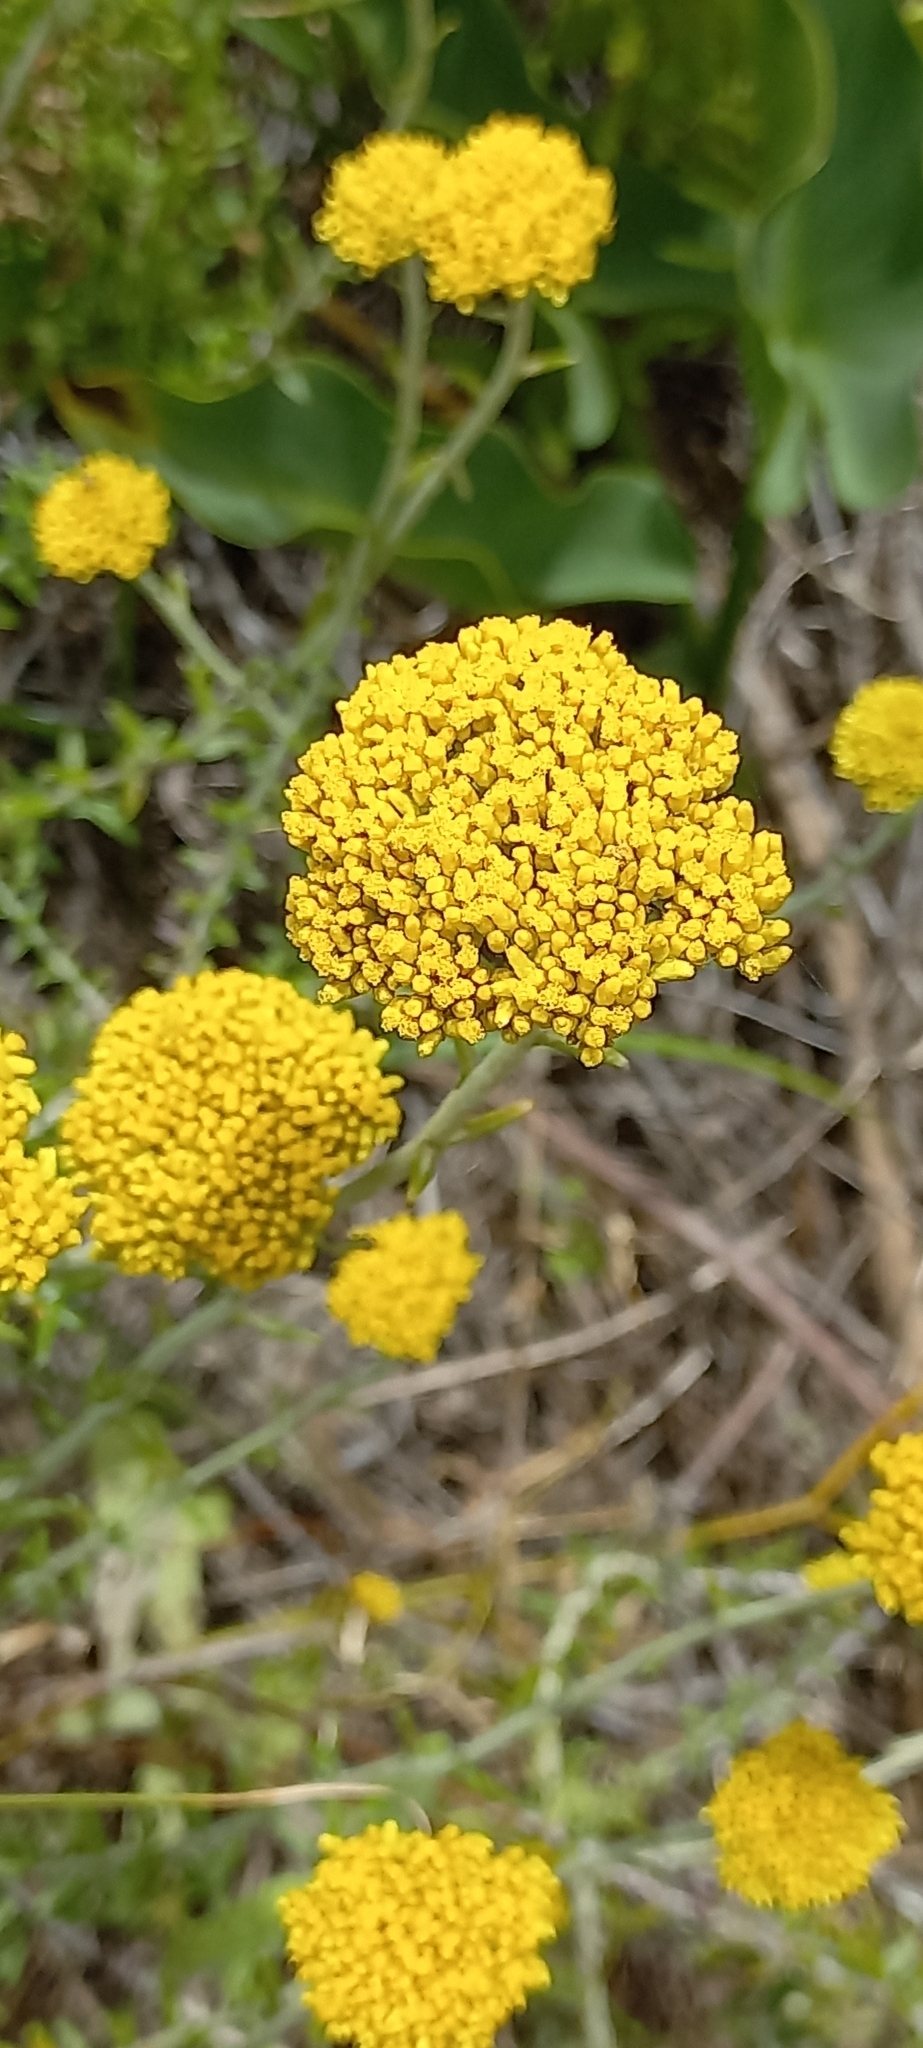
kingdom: Plantae
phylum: Tracheophyta
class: Magnoliopsida
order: Asterales
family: Asteraceae
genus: Helichrysum
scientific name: Helichrysum cymosum
